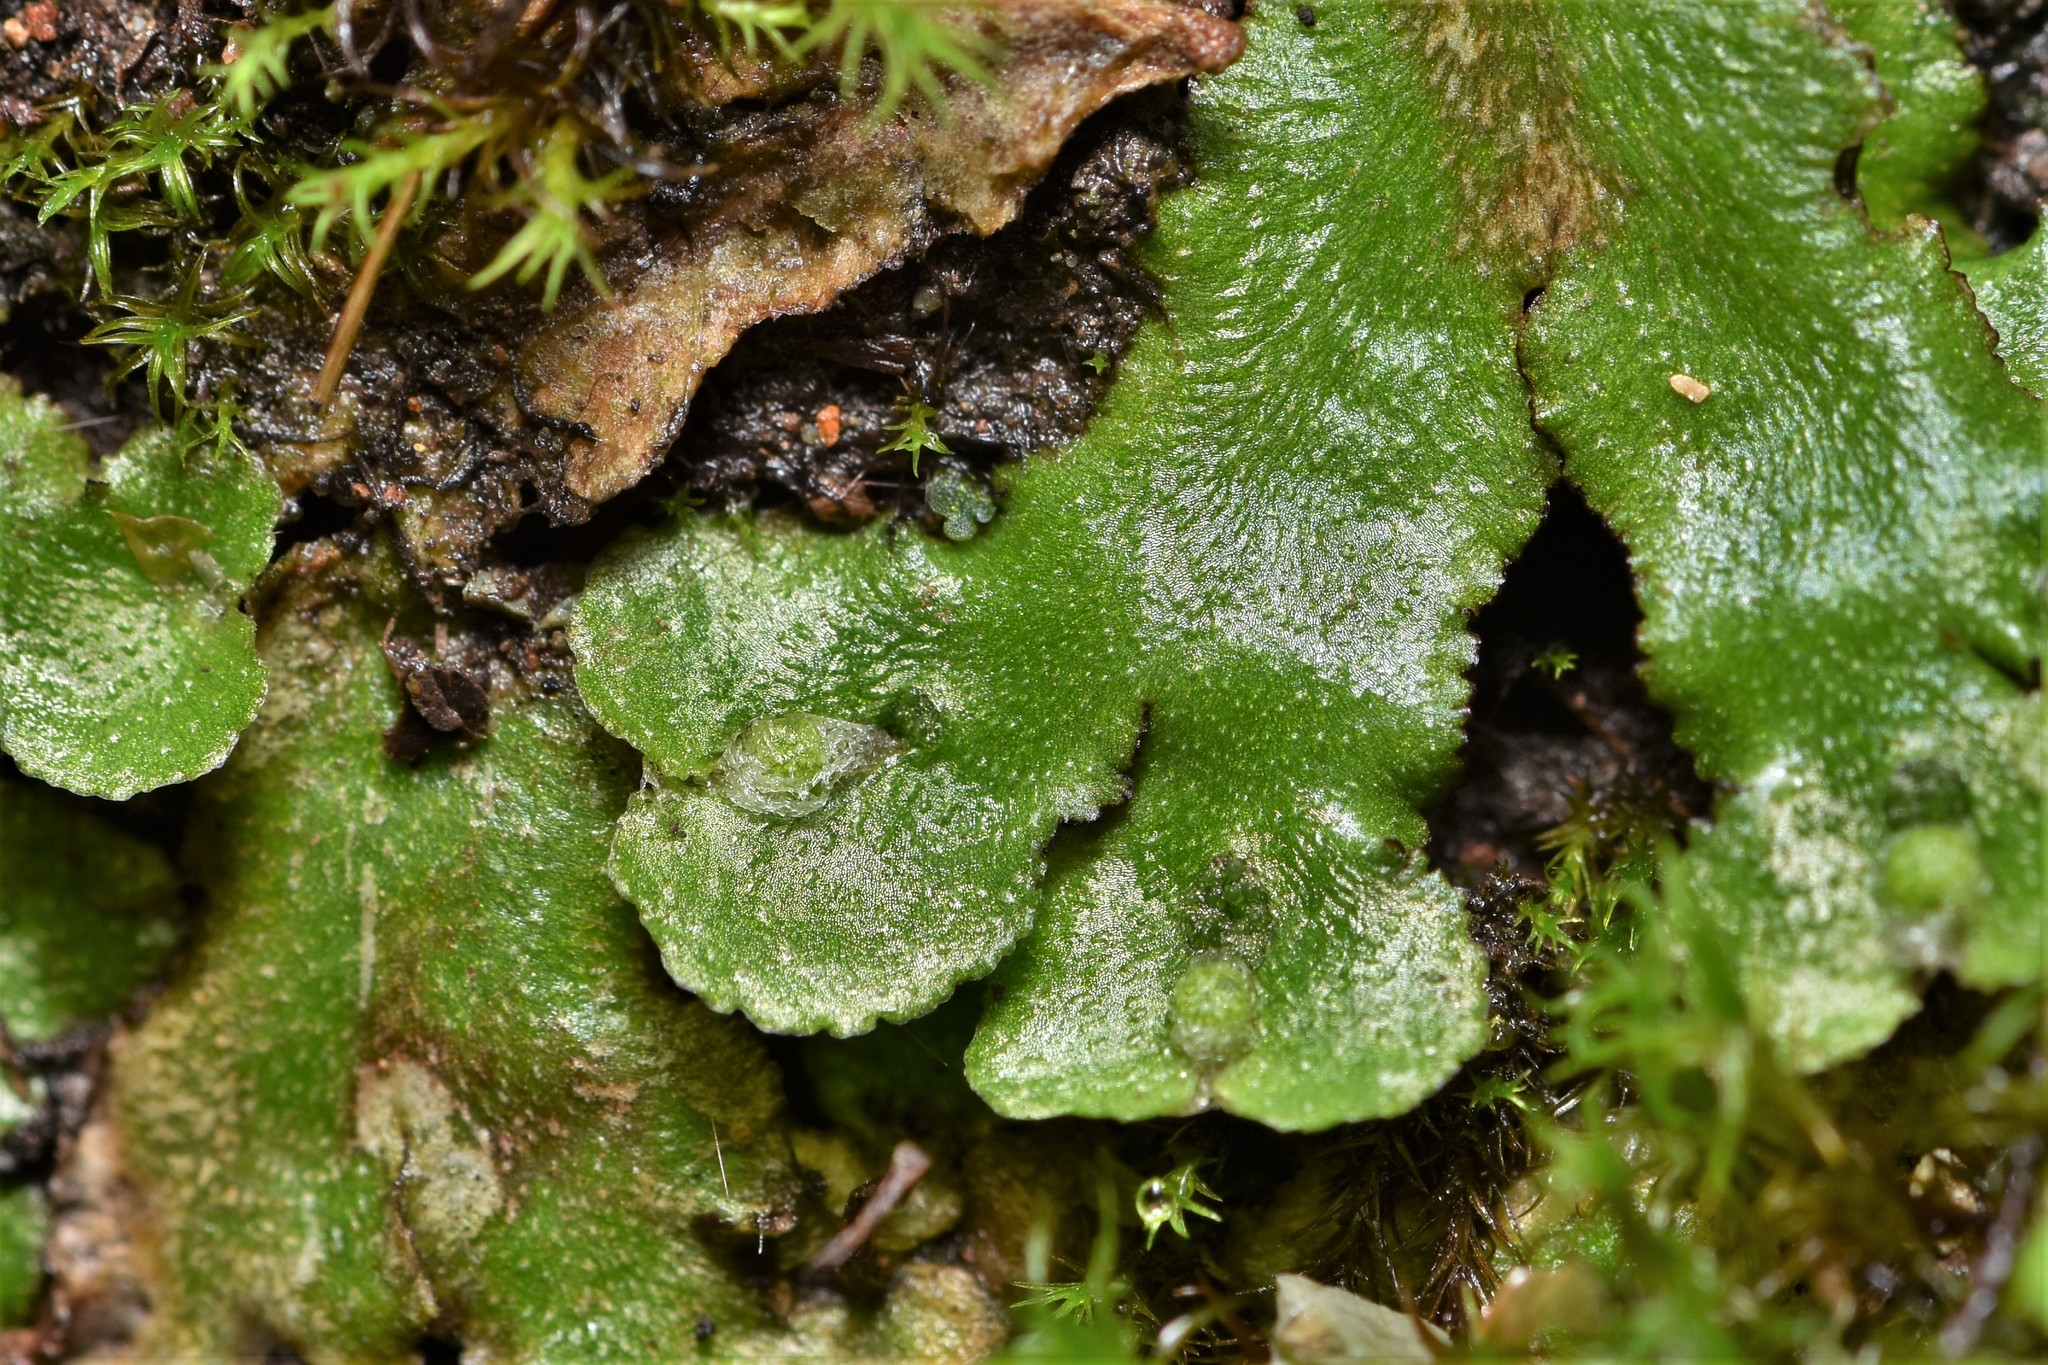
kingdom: Plantae
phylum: Marchantiophyta
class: Marchantiopsida
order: Marchantiales
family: Aytoniaceae
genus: Reboulia
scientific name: Reboulia hemisphaerica
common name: Purple-margined liverwort
